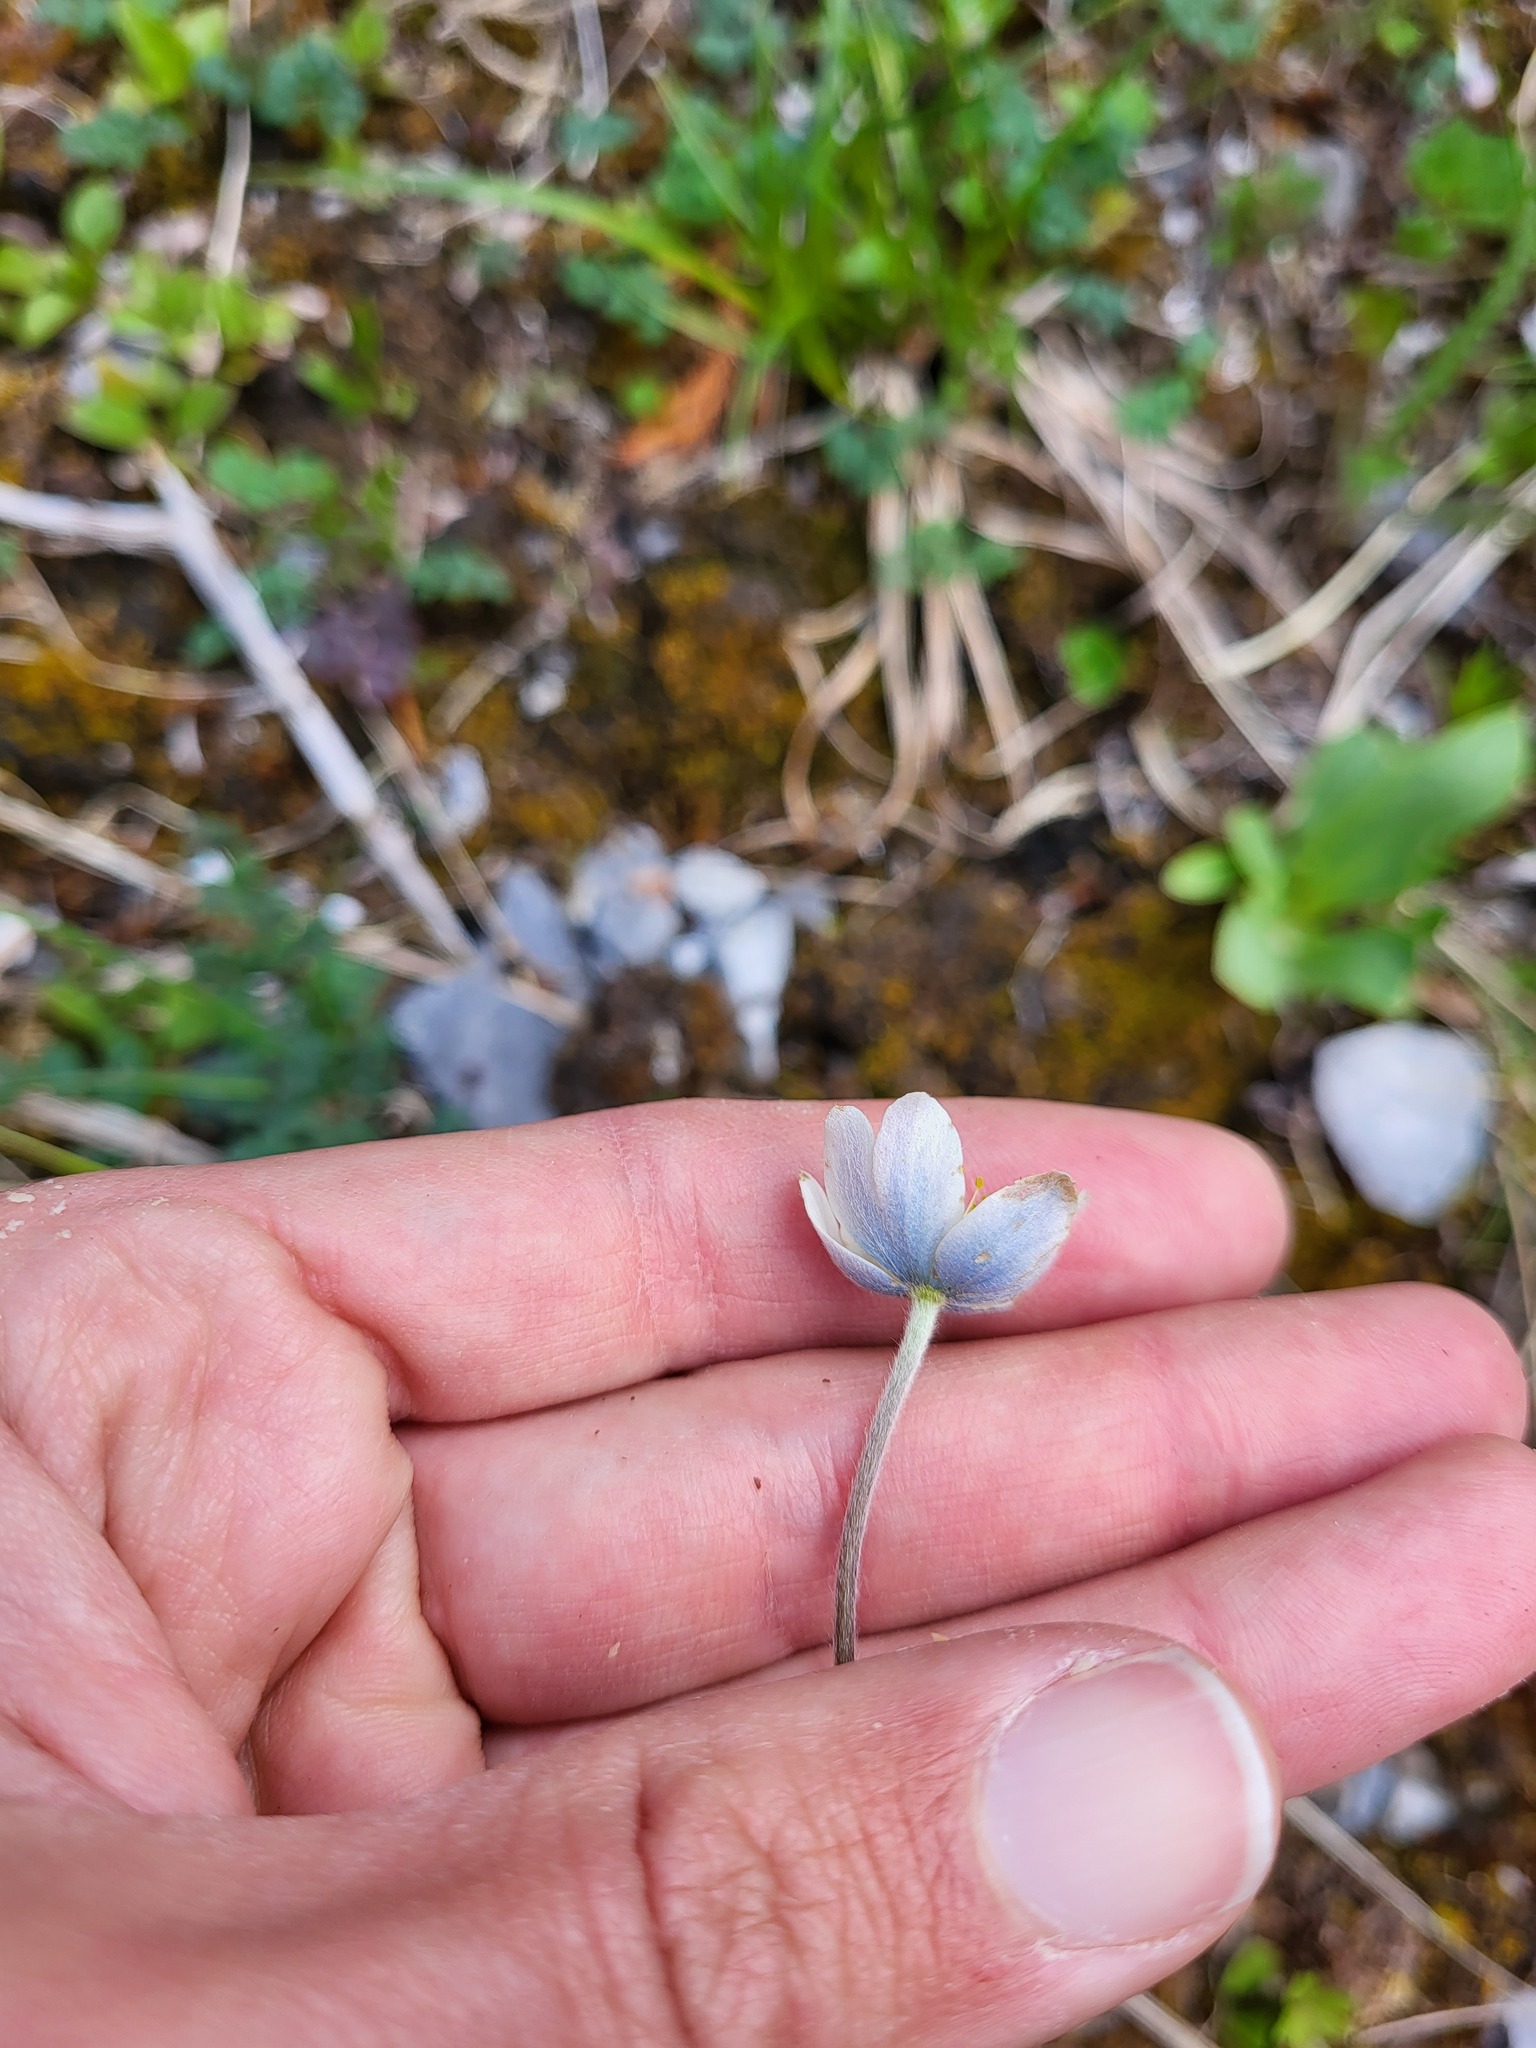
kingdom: Plantae
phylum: Tracheophyta
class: Magnoliopsida
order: Ranunculales
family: Ranunculaceae
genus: Anemone
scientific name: Anemone parviflora
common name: Northern anemone
